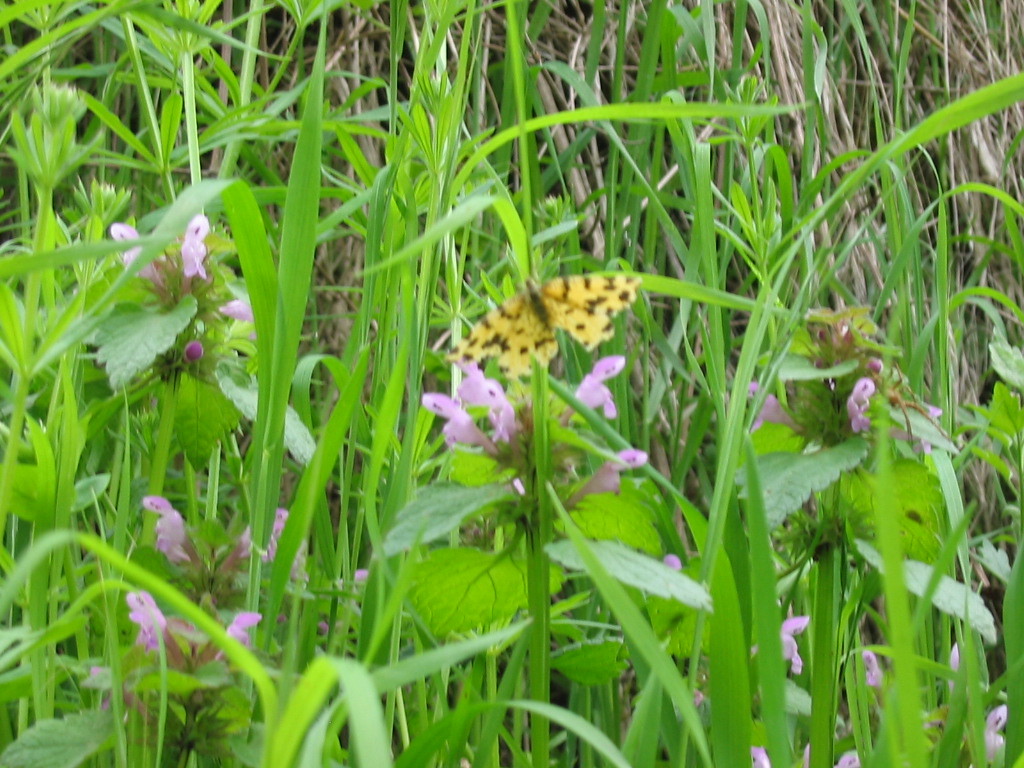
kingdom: Animalia
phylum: Arthropoda
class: Insecta
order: Lepidoptera
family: Geometridae
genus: Pseudopanthera
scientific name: Pseudopanthera macularia
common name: Speckled yellow
